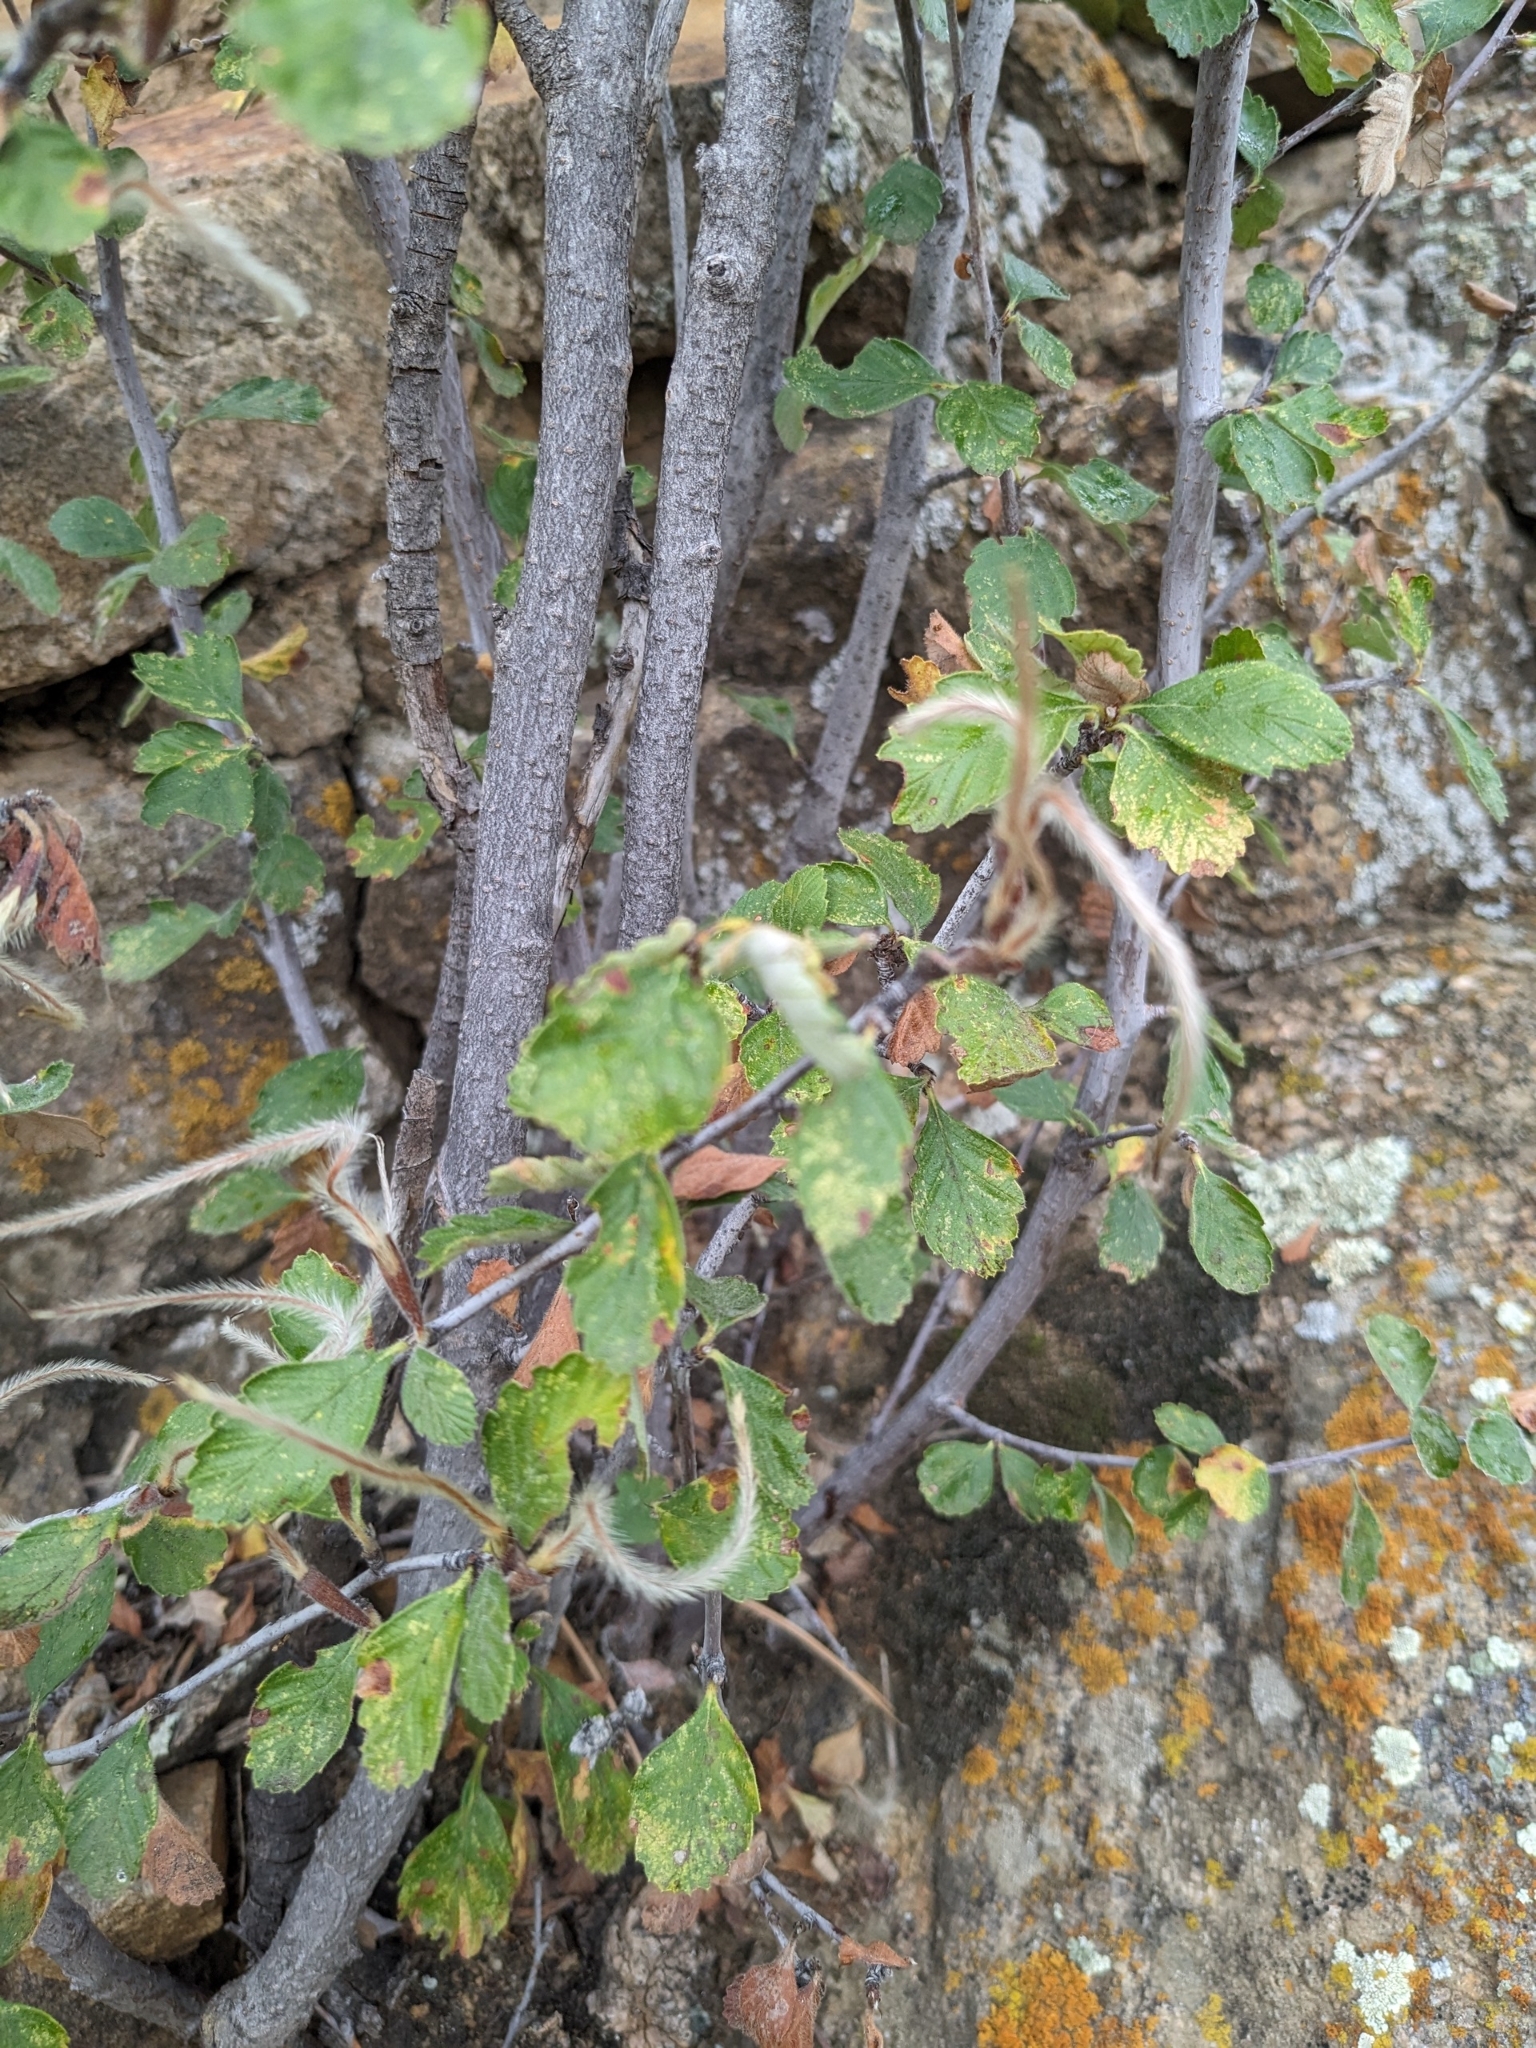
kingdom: Plantae
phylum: Tracheophyta
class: Magnoliopsida
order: Rosales
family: Rosaceae
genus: Cercocarpus
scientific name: Cercocarpus montanus
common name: Alder-leaf cercocarpus
